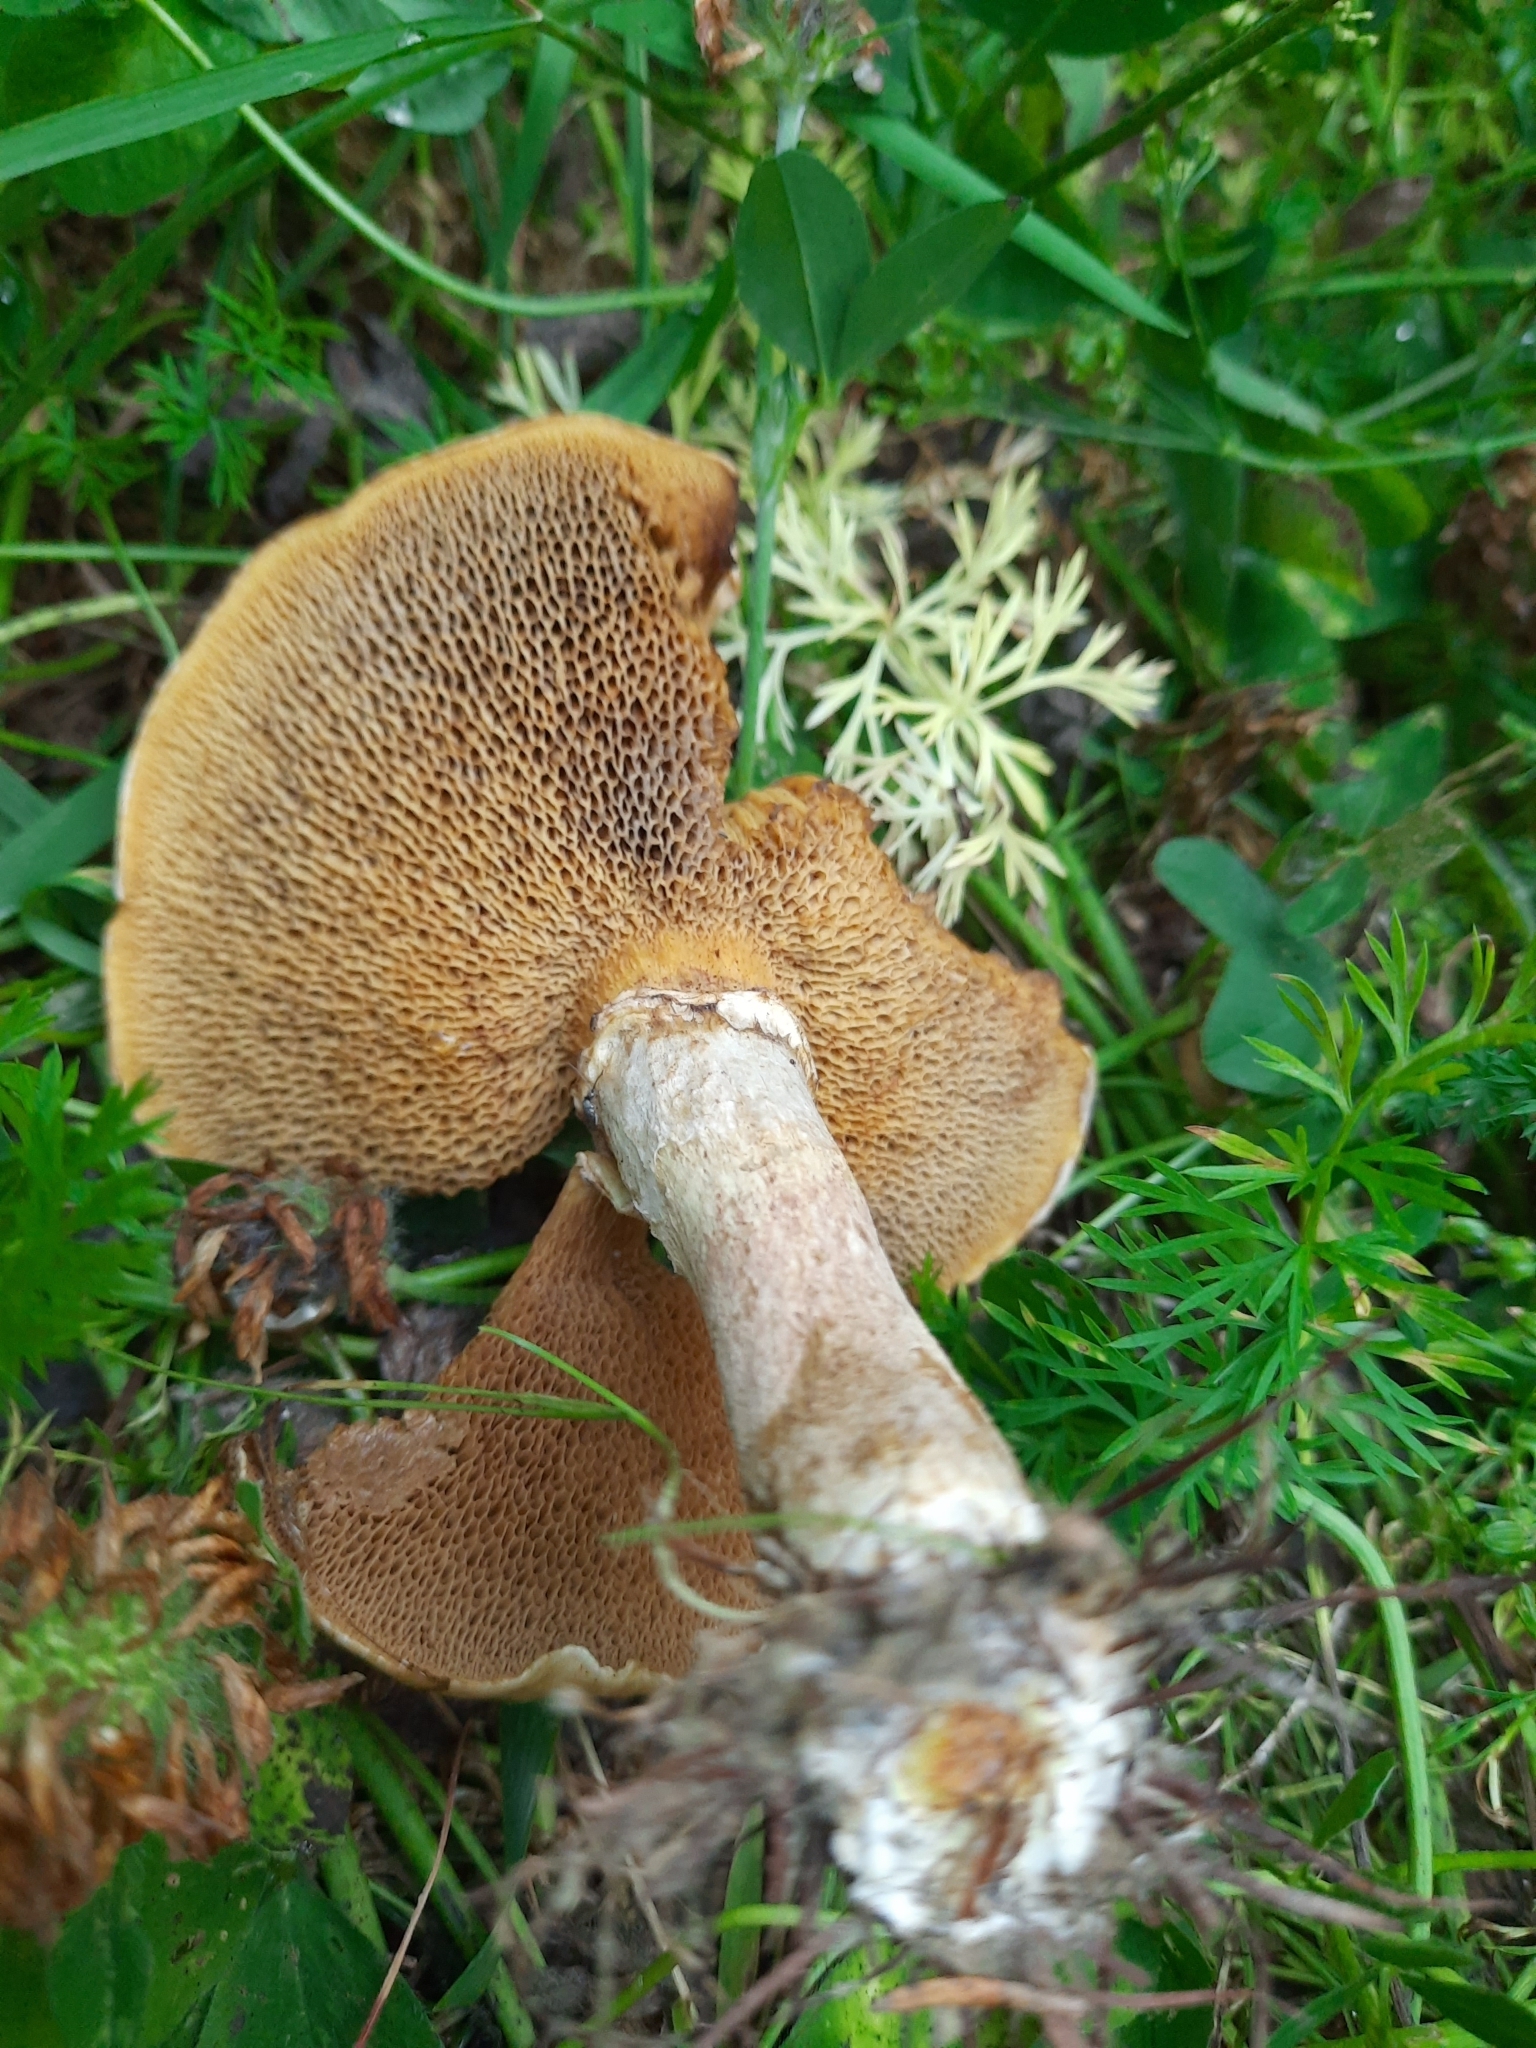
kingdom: Fungi
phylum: Basidiomycota
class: Agaricomycetes
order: Boletales
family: Suillaceae
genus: Suillus
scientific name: Suillus americanus
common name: Chicken fat mushroom
